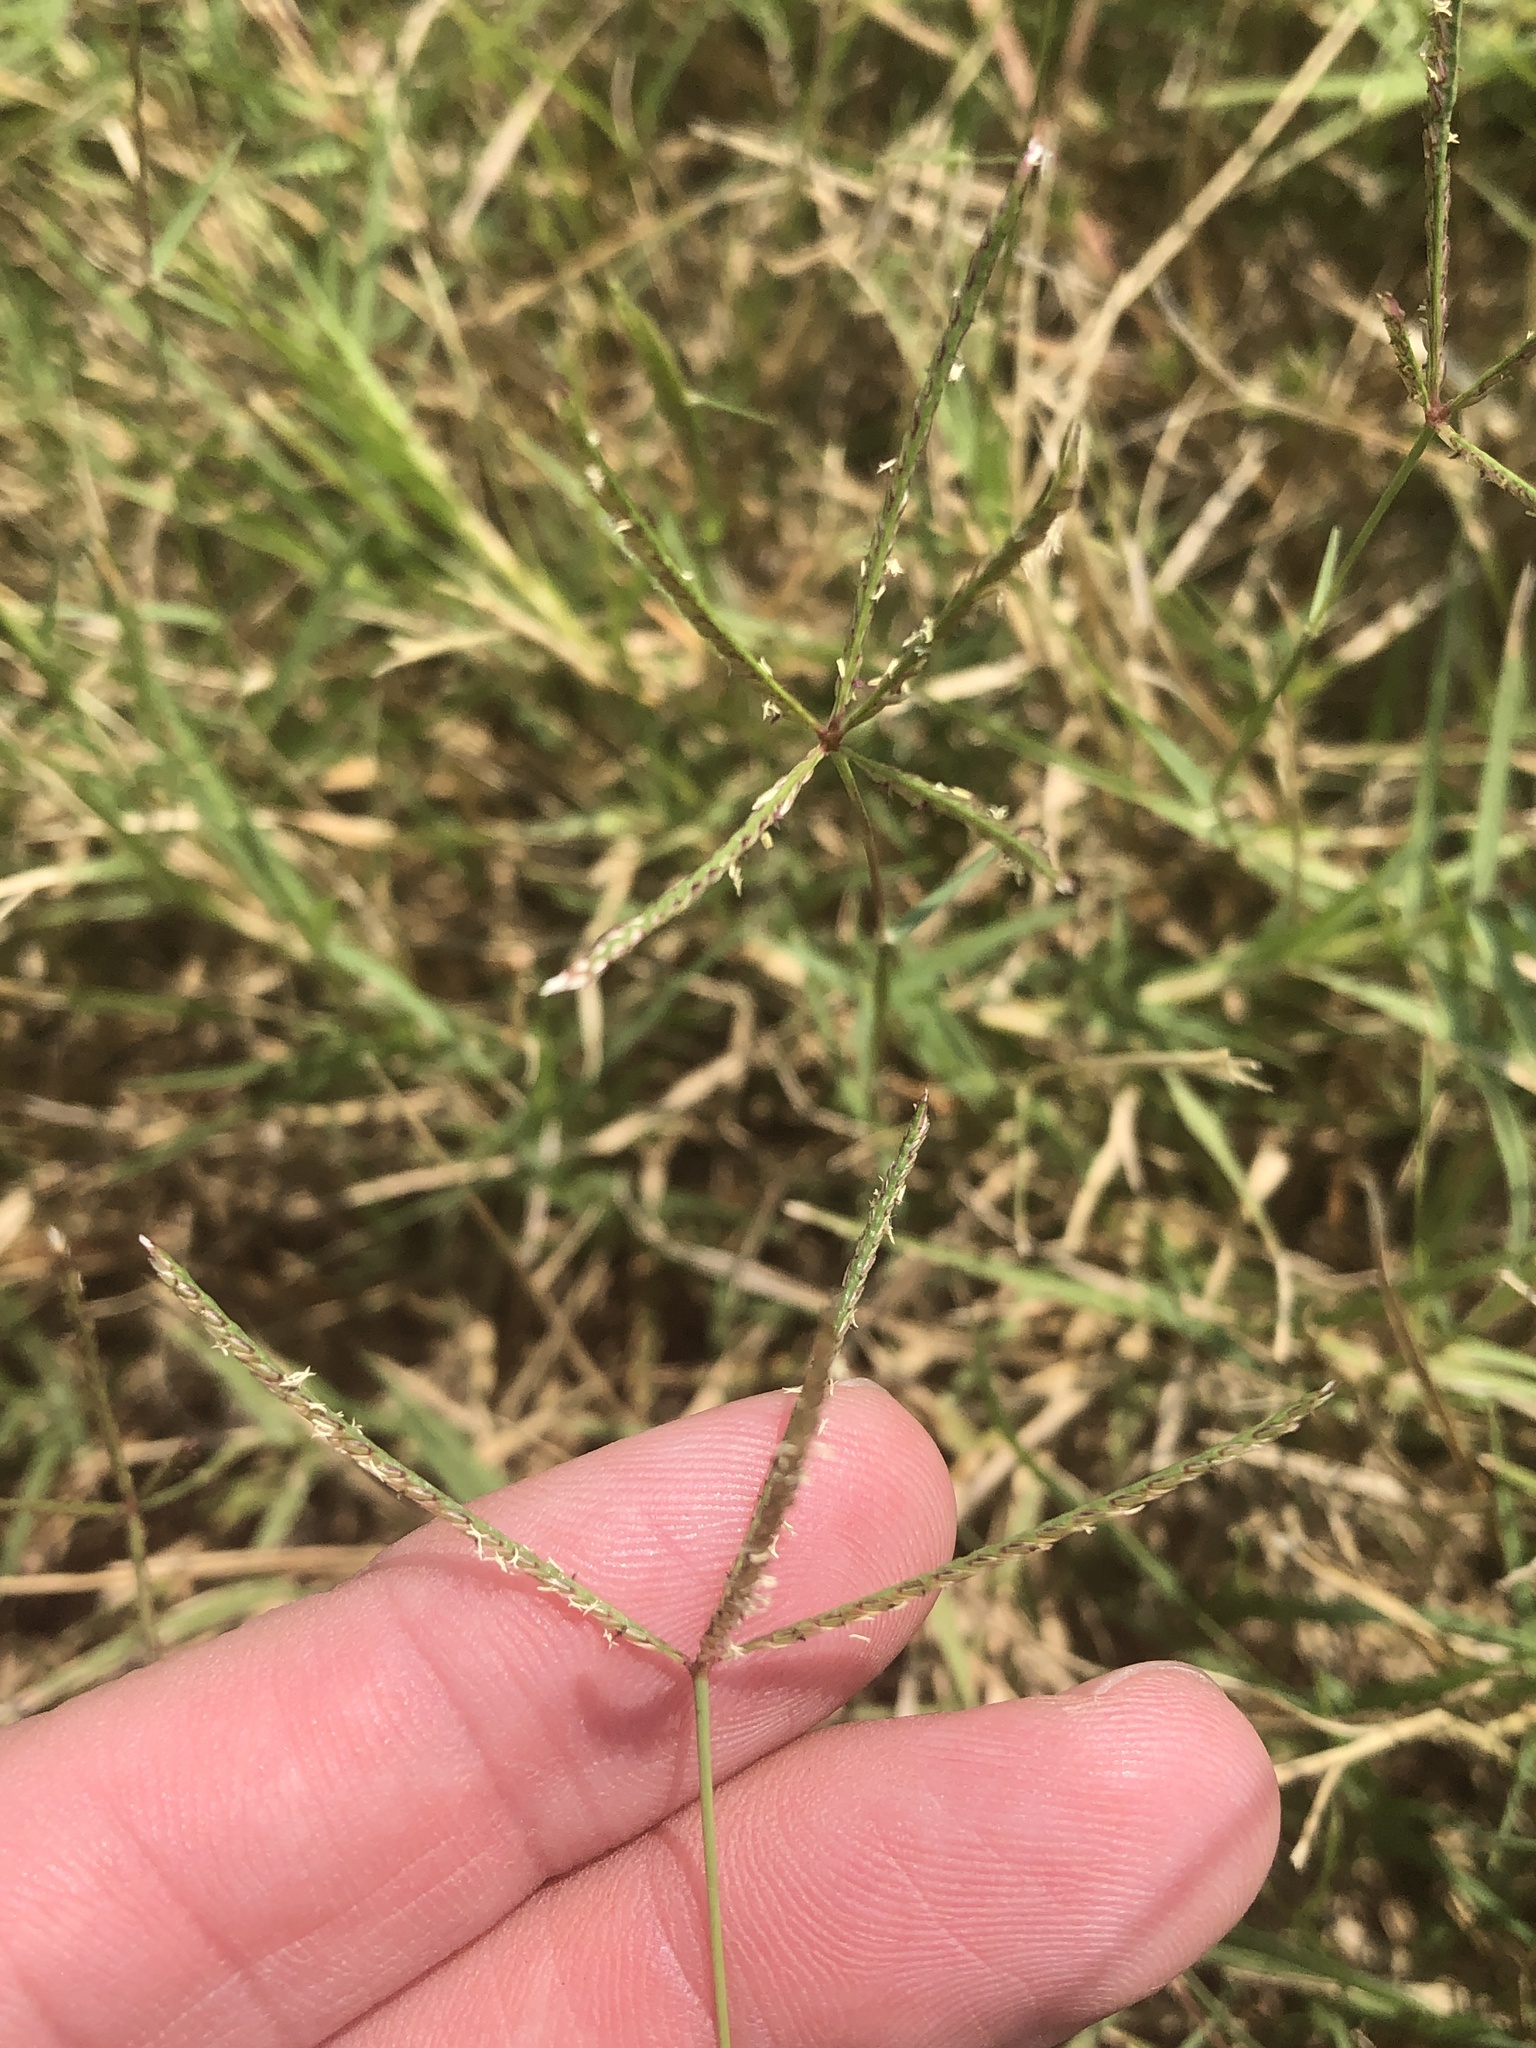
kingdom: Plantae
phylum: Tracheophyta
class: Liliopsida
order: Poales
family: Poaceae
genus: Cynodon
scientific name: Cynodon dactylon
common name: Bermuda grass
